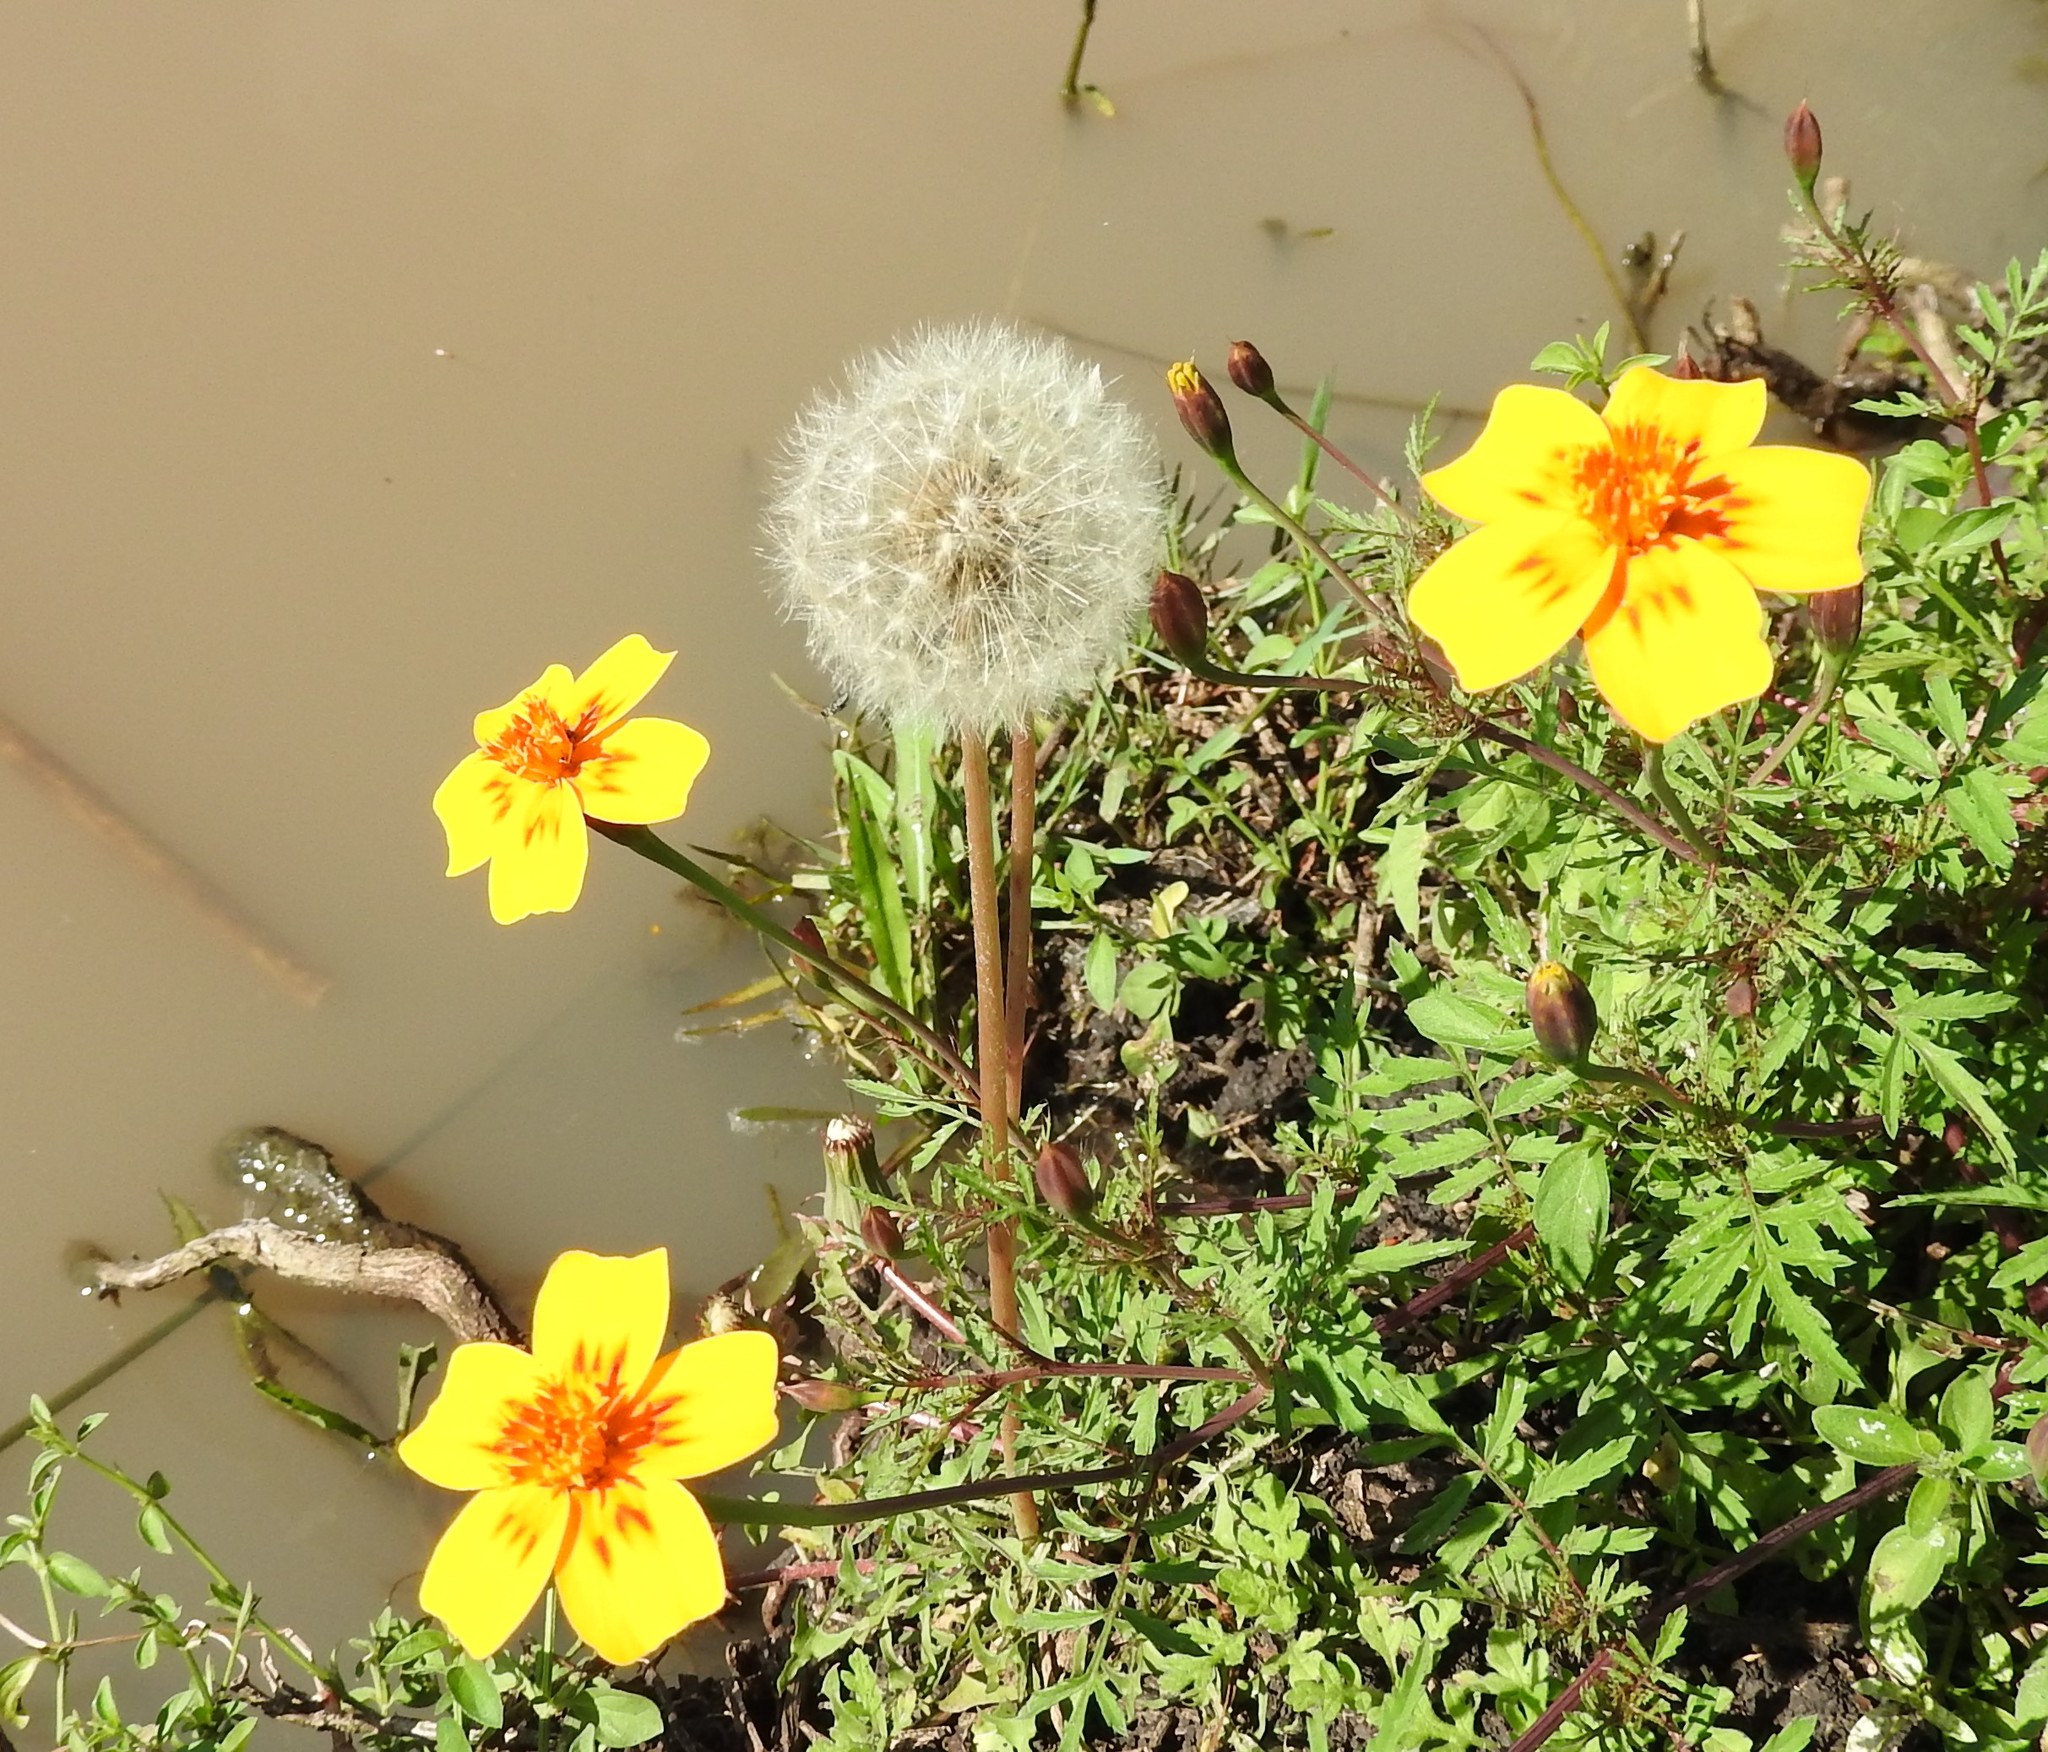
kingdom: Plantae
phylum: Tracheophyta
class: Magnoliopsida
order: Asterales
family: Asteraceae
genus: Taraxacum
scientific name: Taraxacum officinale
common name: Common dandelion
